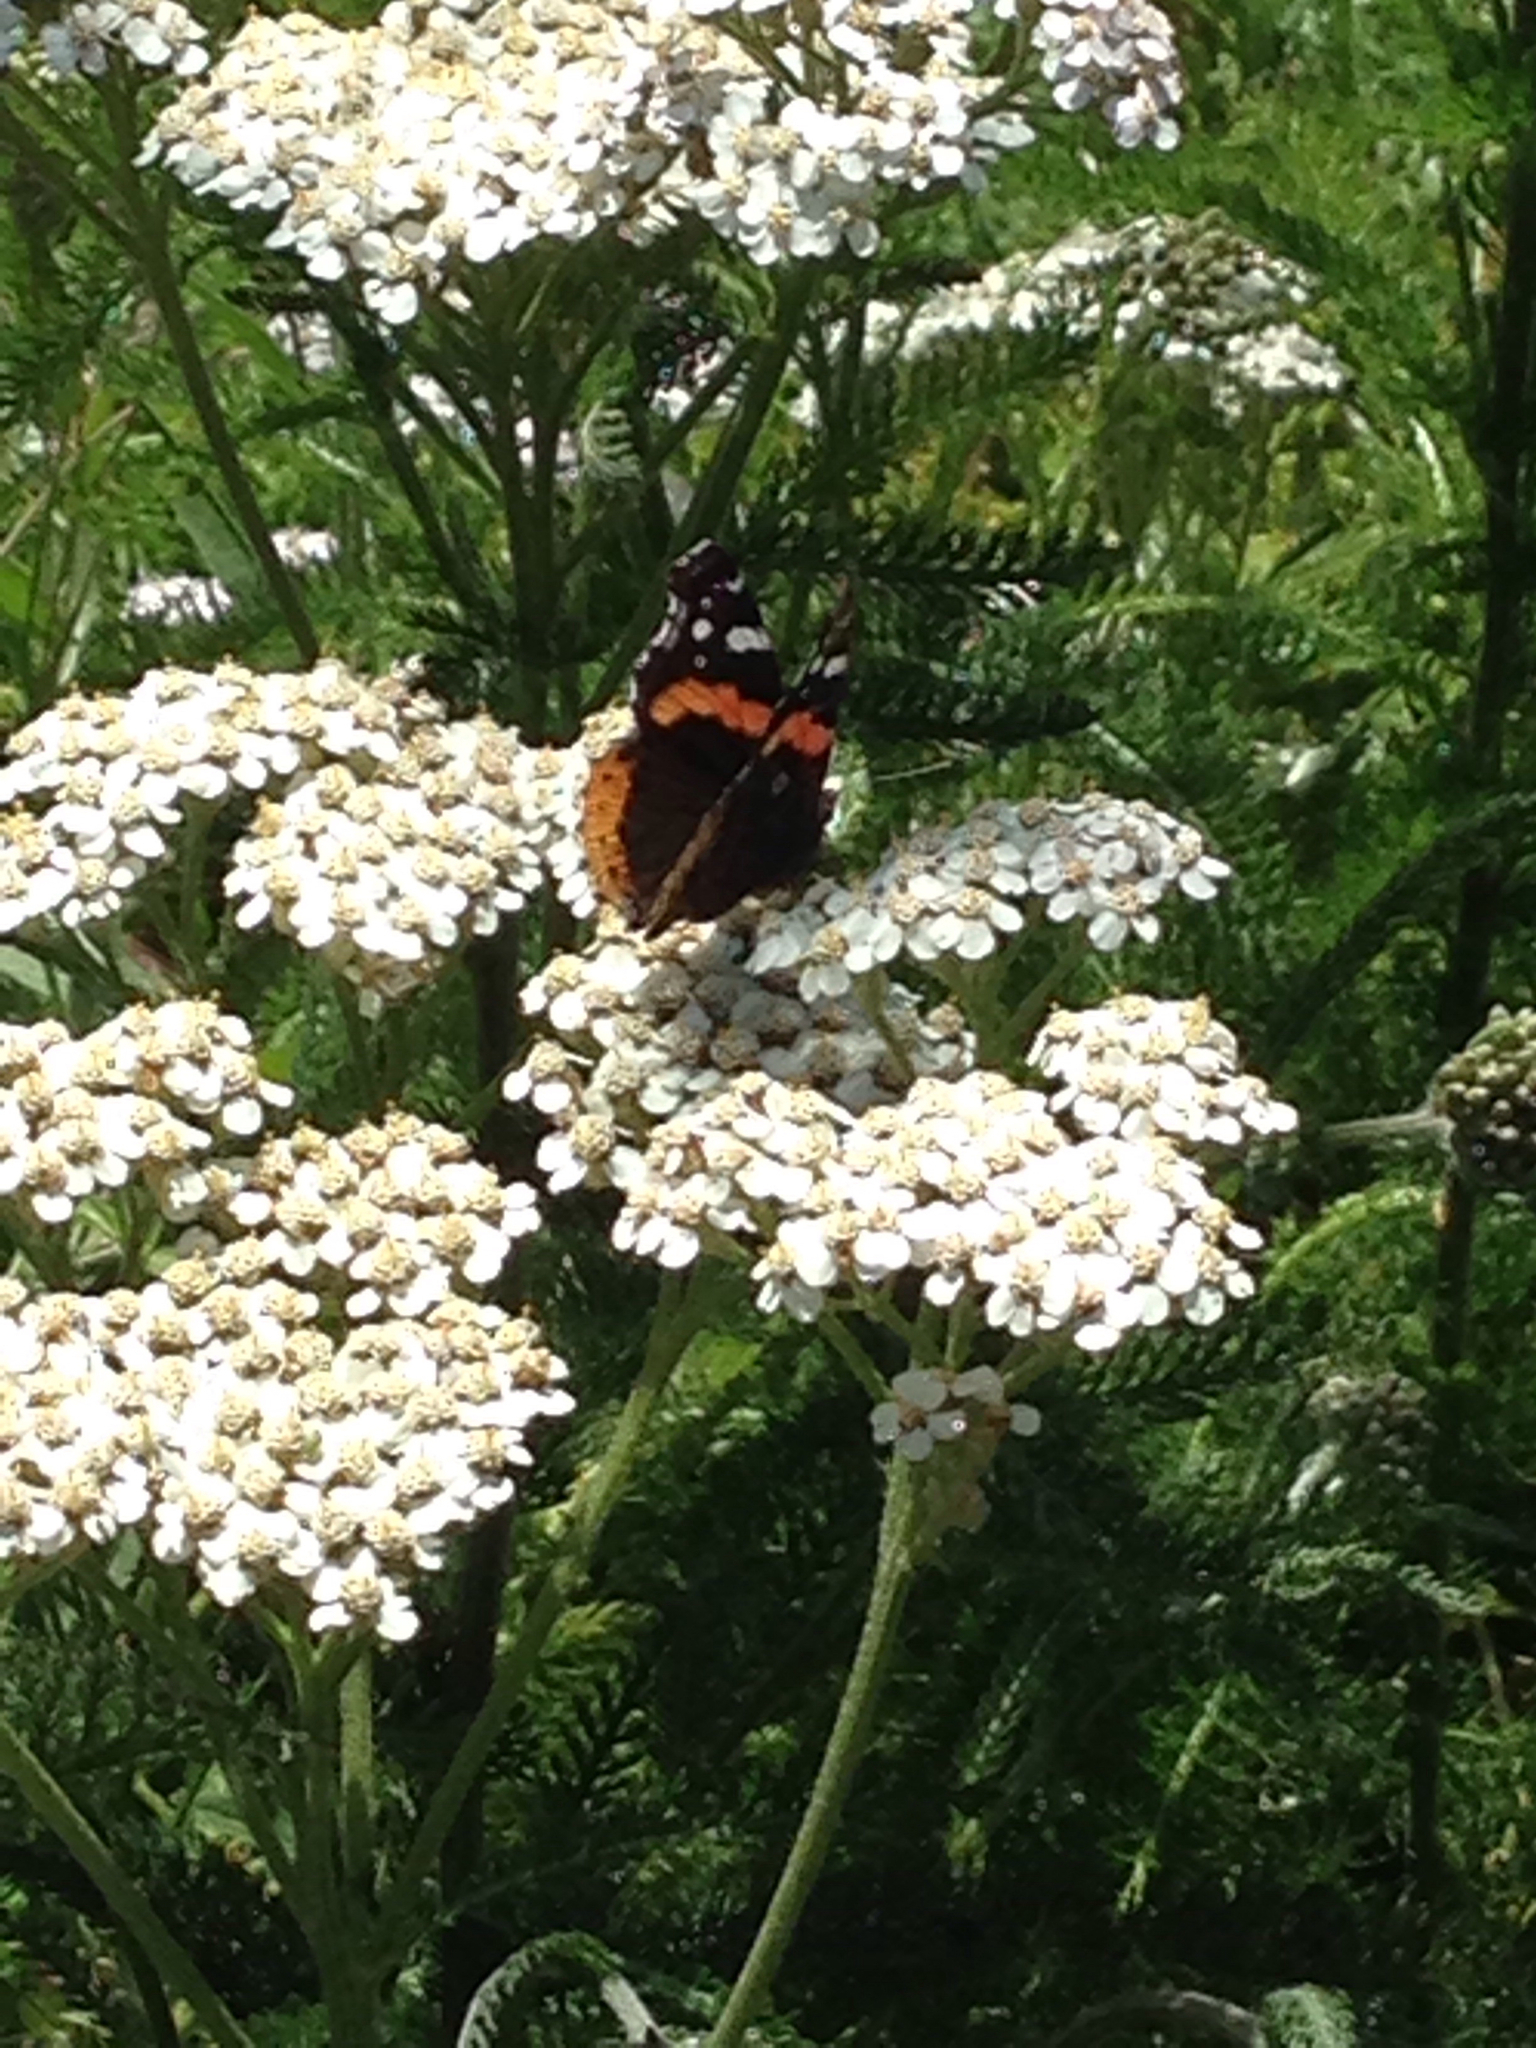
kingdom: Animalia
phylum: Arthropoda
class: Insecta
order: Lepidoptera
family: Nymphalidae
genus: Vanessa
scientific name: Vanessa atalanta
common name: Red admiral
